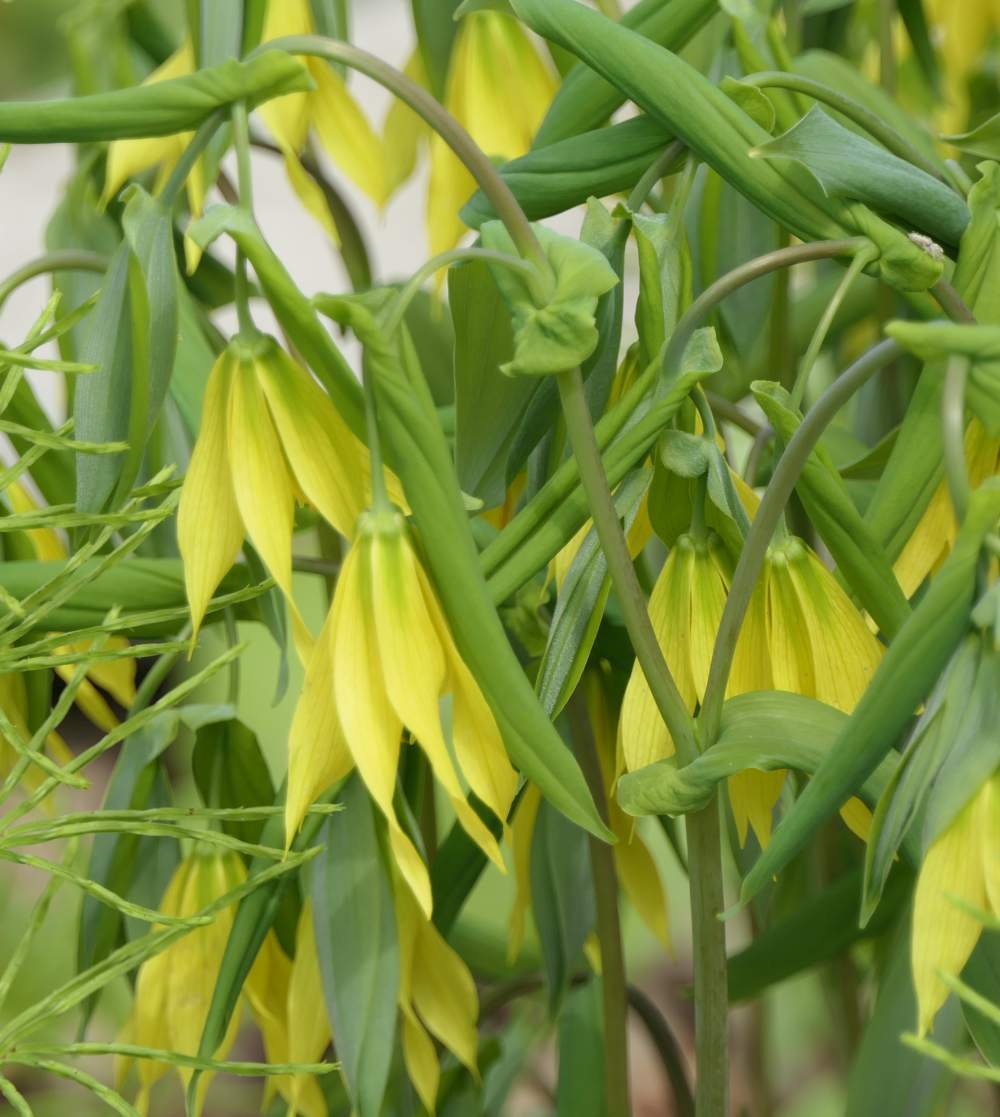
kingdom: Plantae
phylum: Tracheophyta
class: Liliopsida
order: Liliales
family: Colchicaceae
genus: Uvularia
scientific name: Uvularia grandiflora
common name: Bellwort
